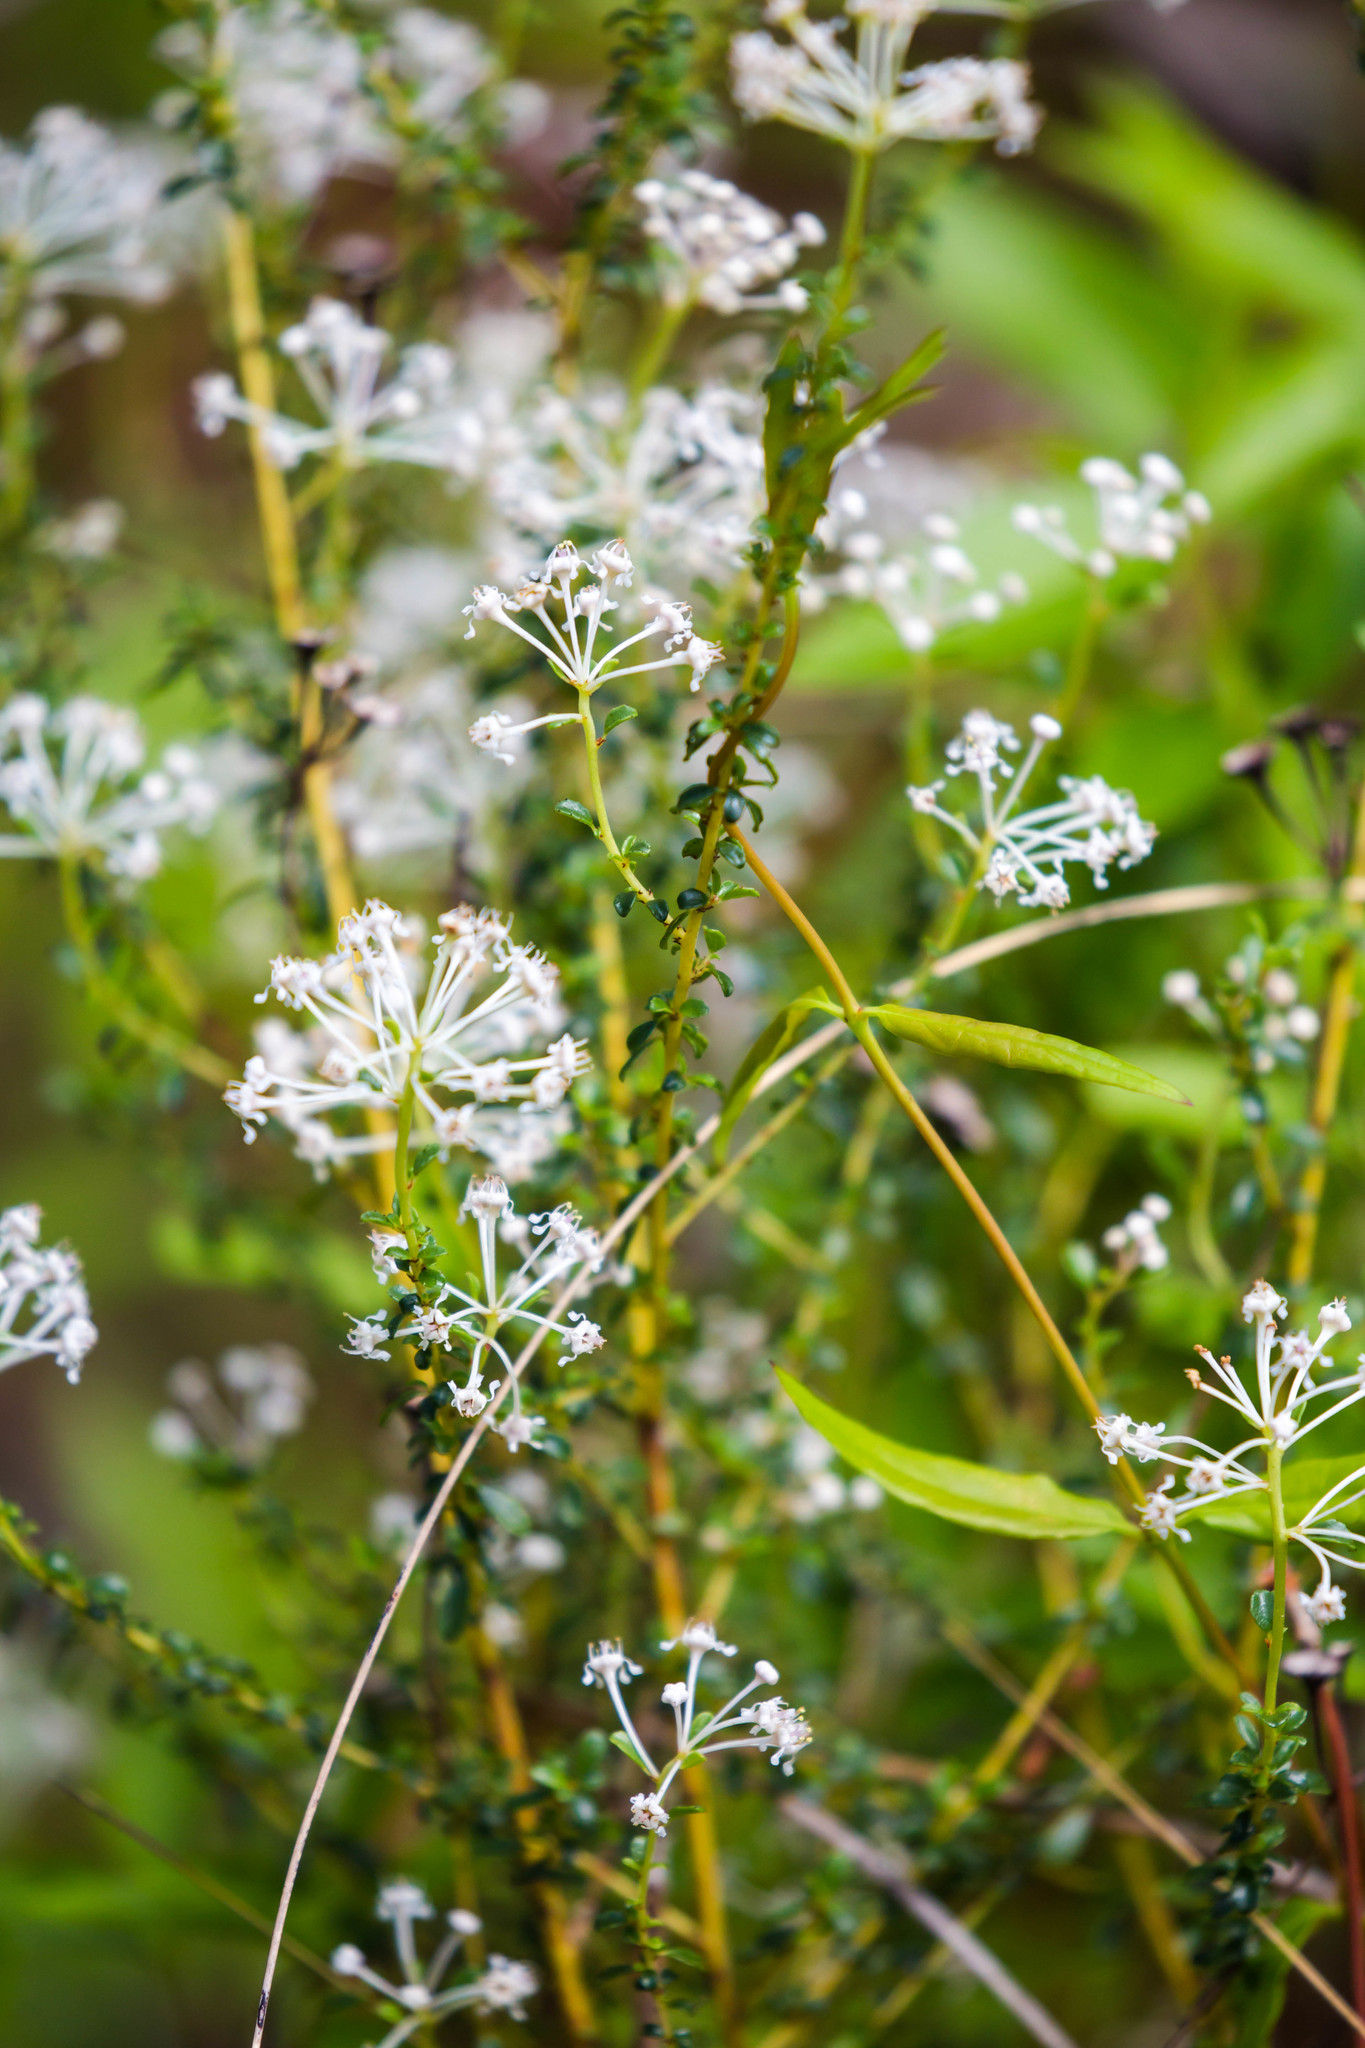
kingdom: Plantae
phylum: Tracheophyta
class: Magnoliopsida
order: Rosales
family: Rhamnaceae
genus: Ceanothus
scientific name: Ceanothus microphyllus
